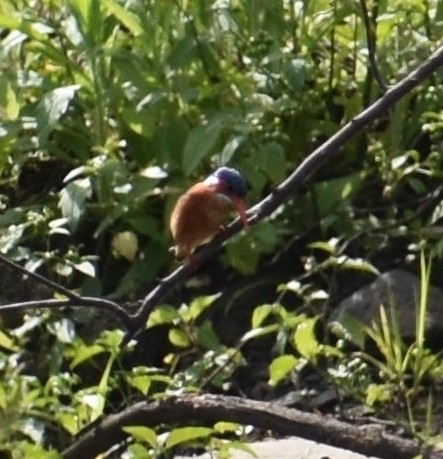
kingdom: Animalia
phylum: Chordata
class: Aves
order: Coraciiformes
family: Alcedinidae
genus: Corythornis
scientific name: Corythornis cristatus
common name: Malachite kingfisher
